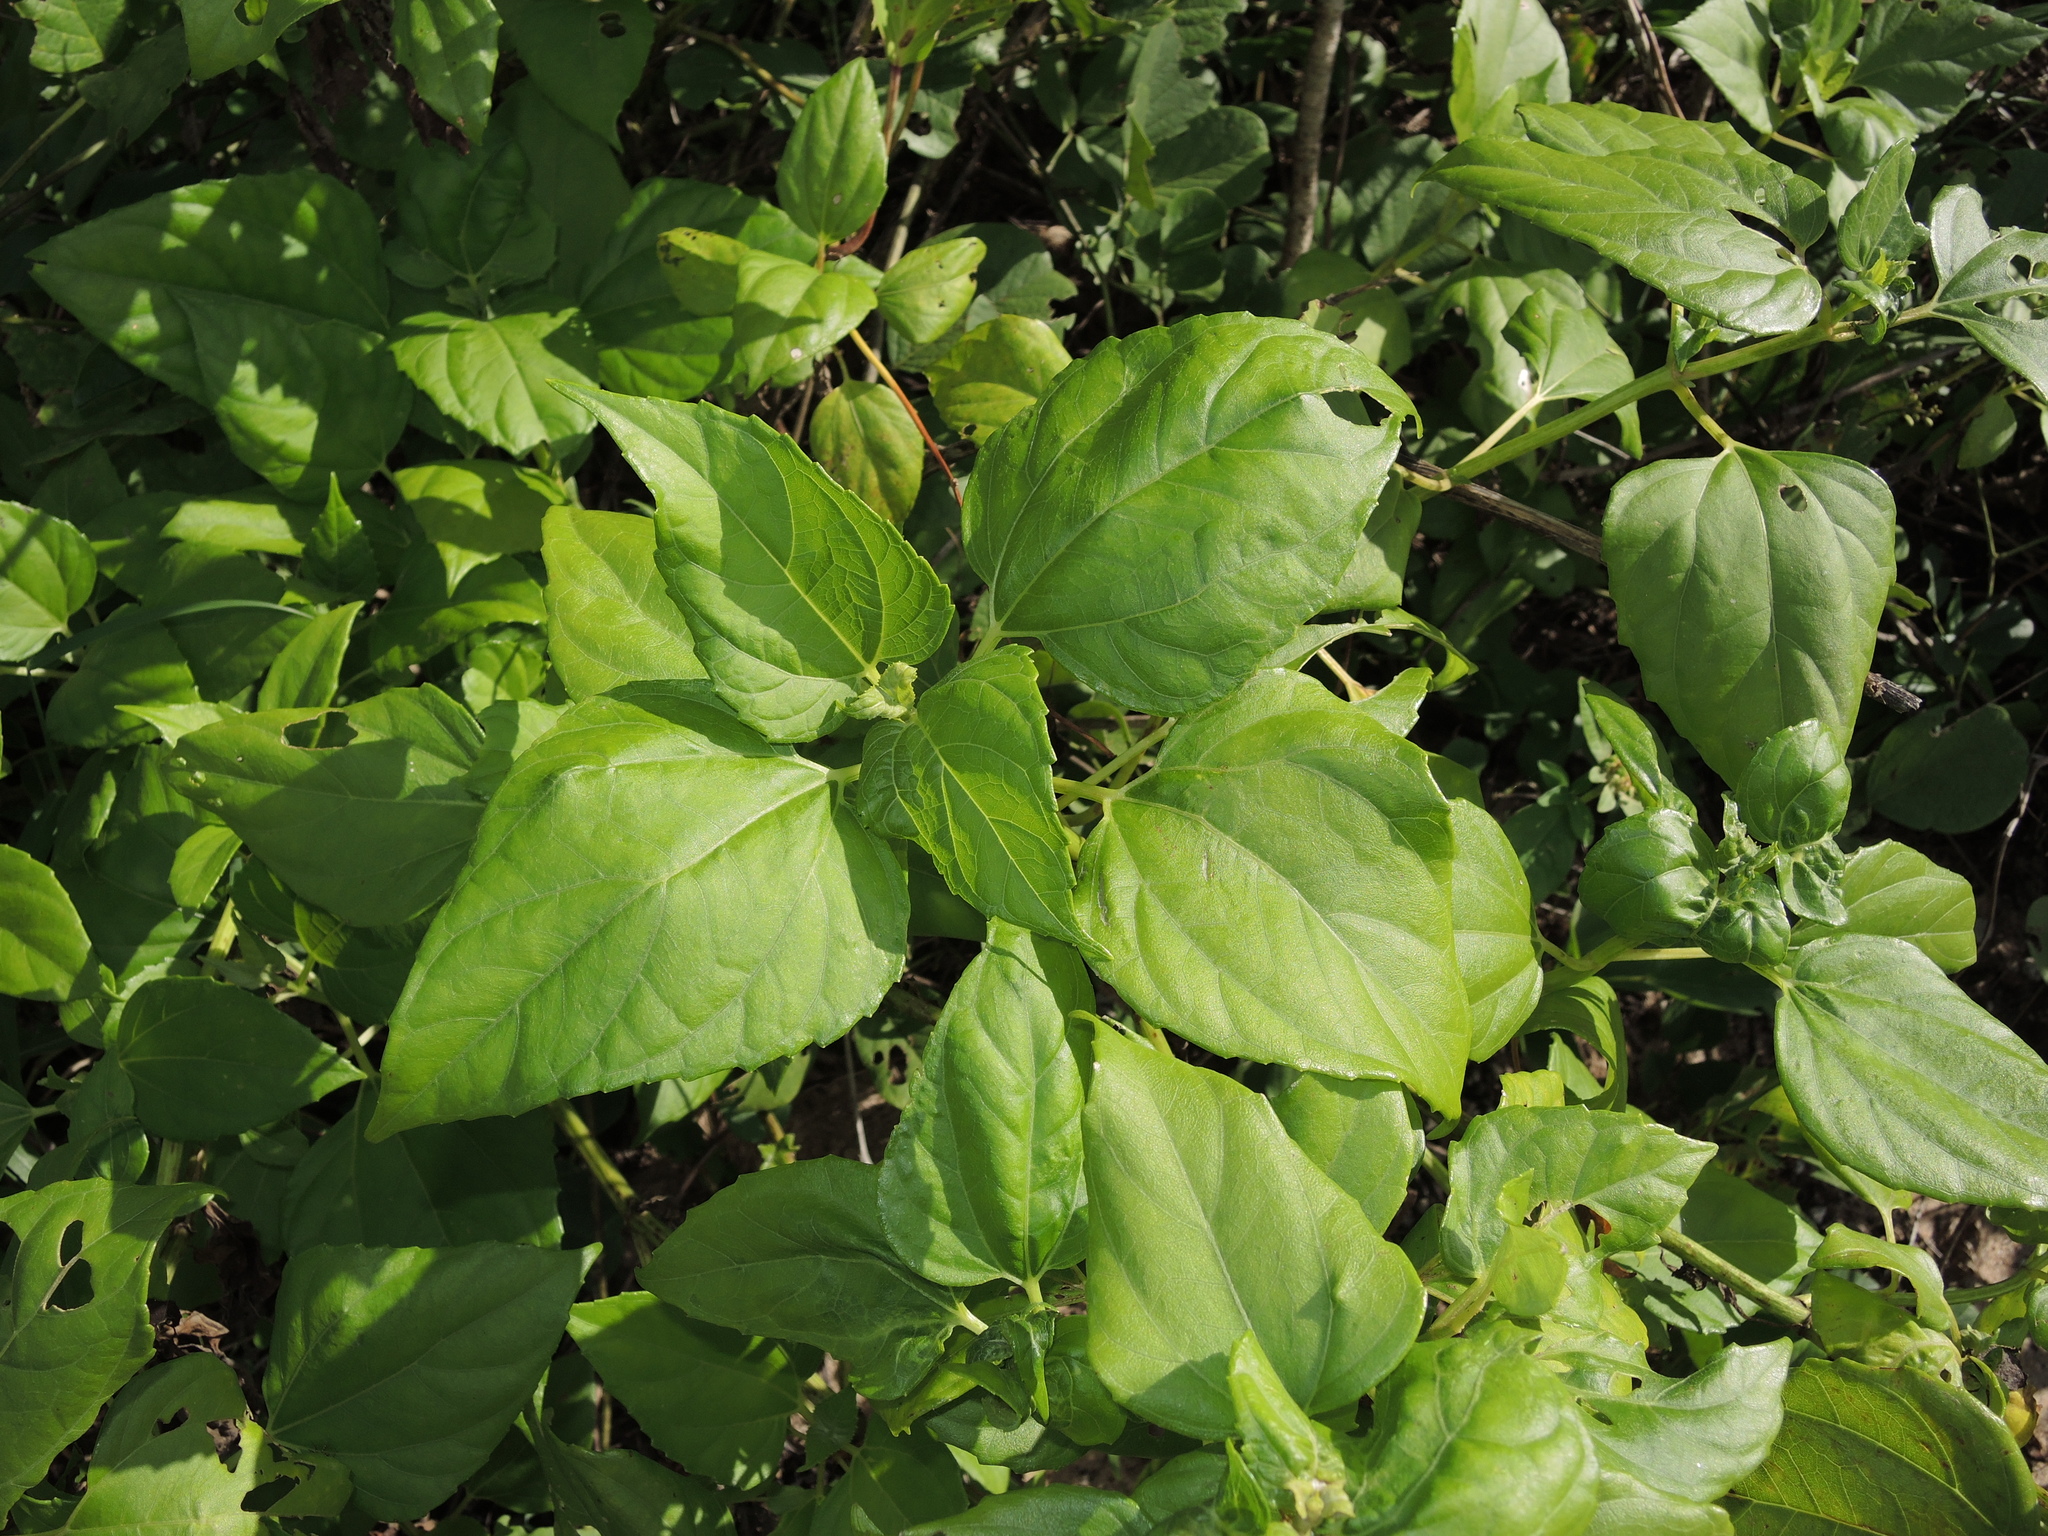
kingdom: Plantae
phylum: Tracheophyta
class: Magnoliopsida
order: Asterales
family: Asteraceae
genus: Wollastonia
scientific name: Wollastonia biflora
